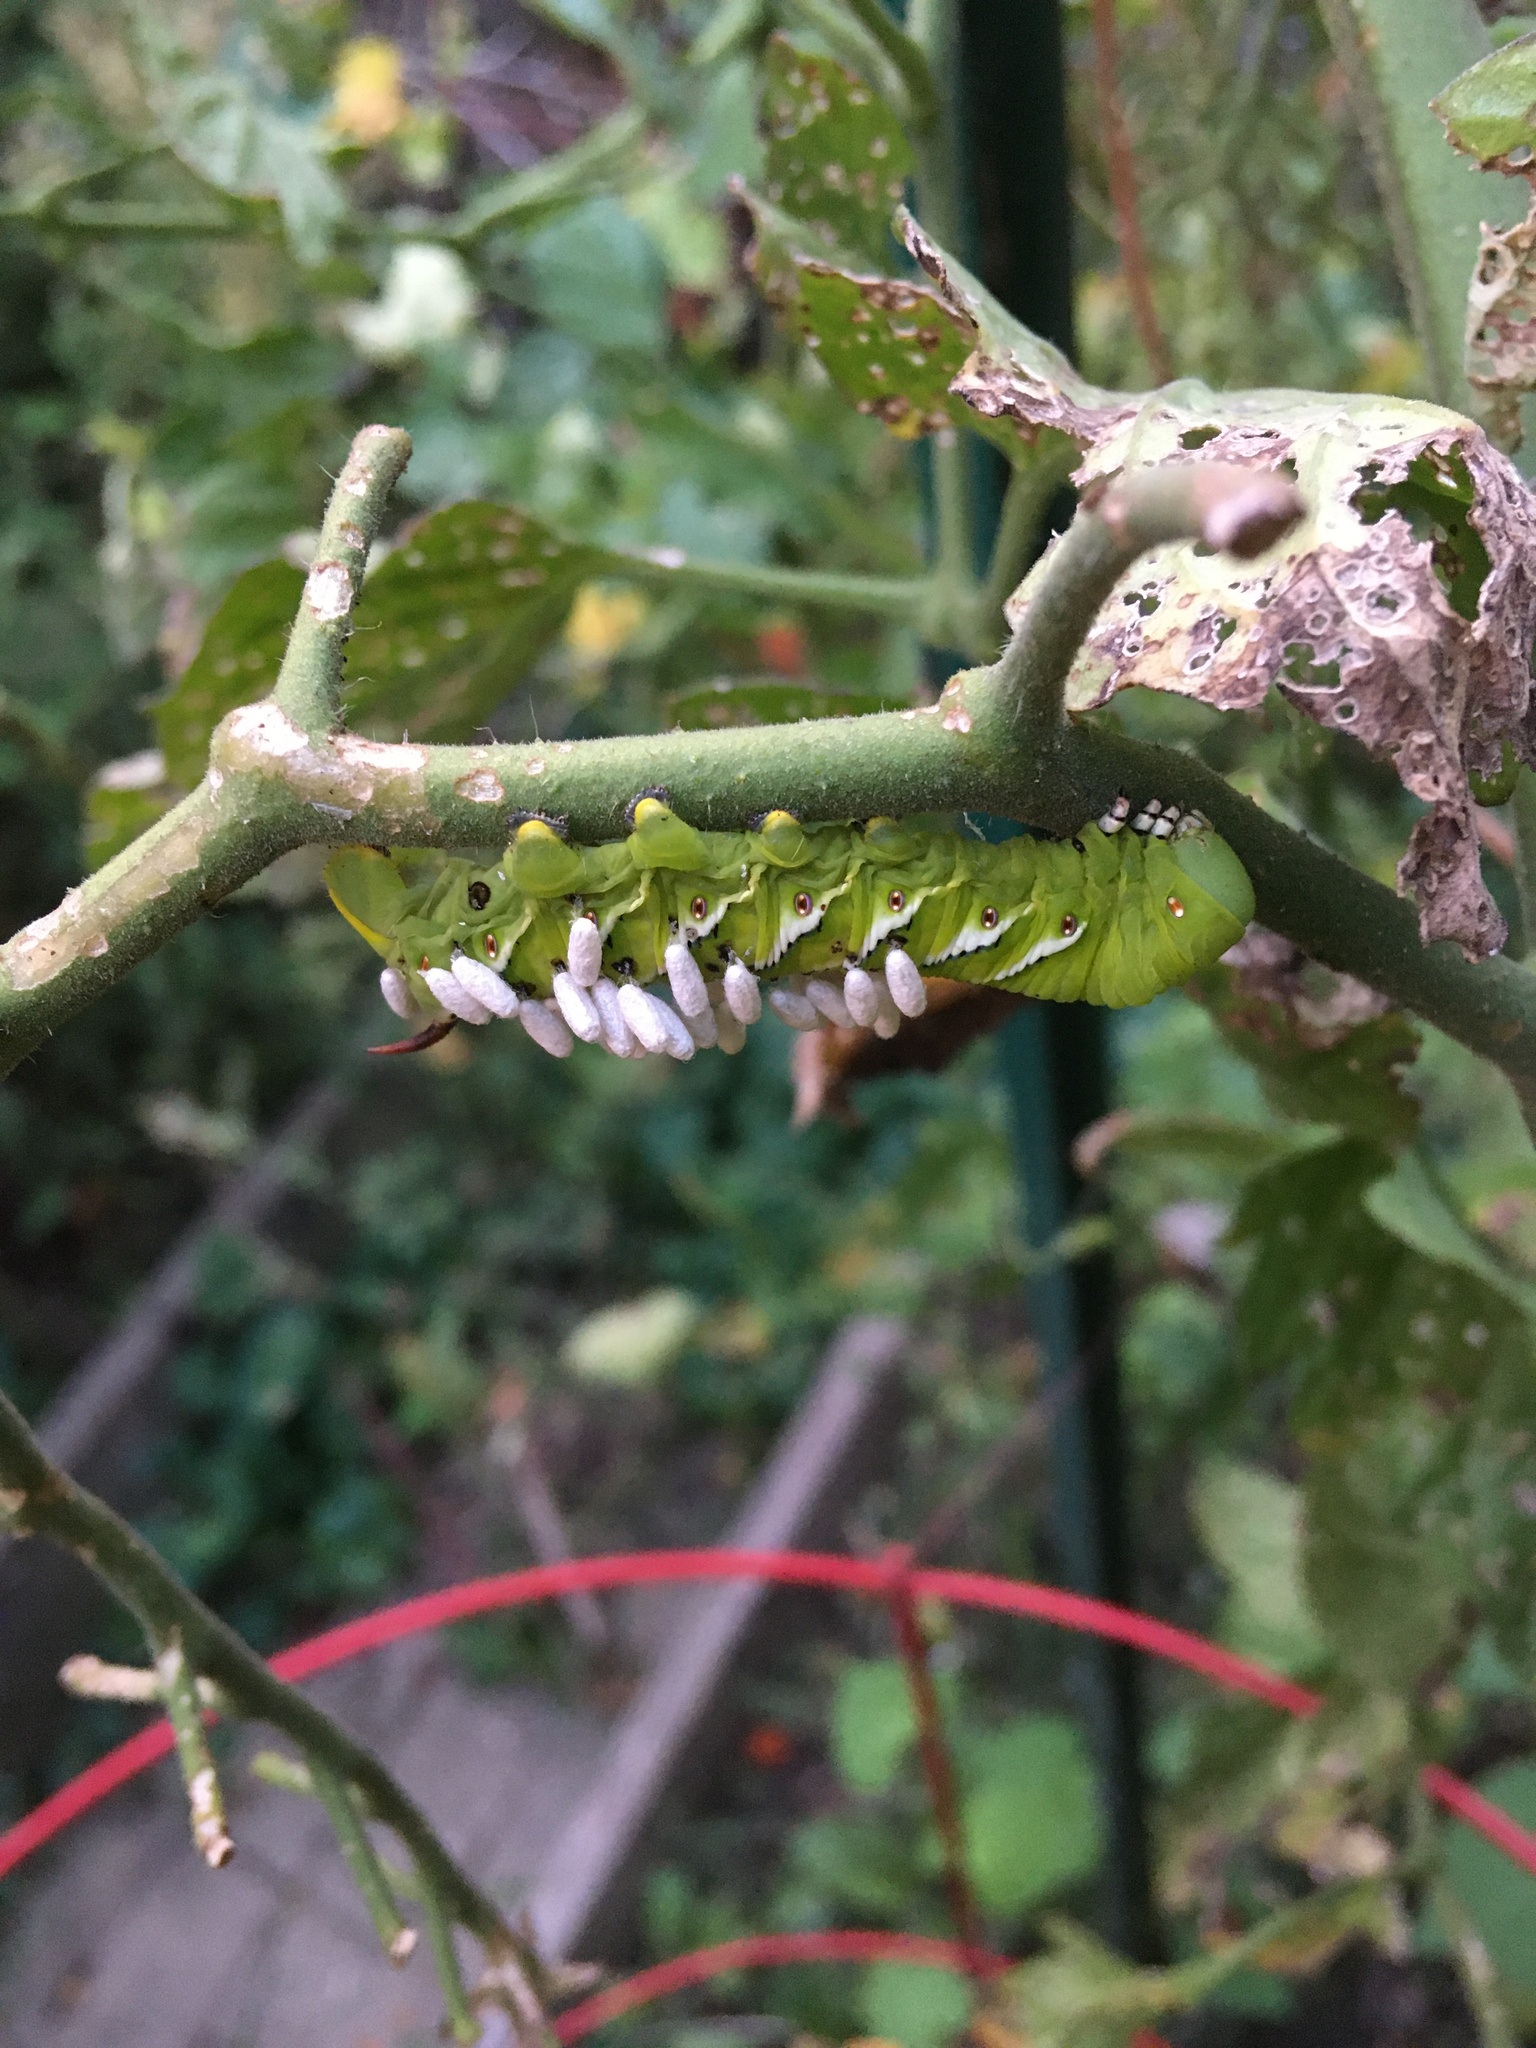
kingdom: Animalia
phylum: Arthropoda
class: Insecta
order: Lepidoptera
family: Sphingidae
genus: Manduca
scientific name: Manduca sexta
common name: Carolina sphinx
